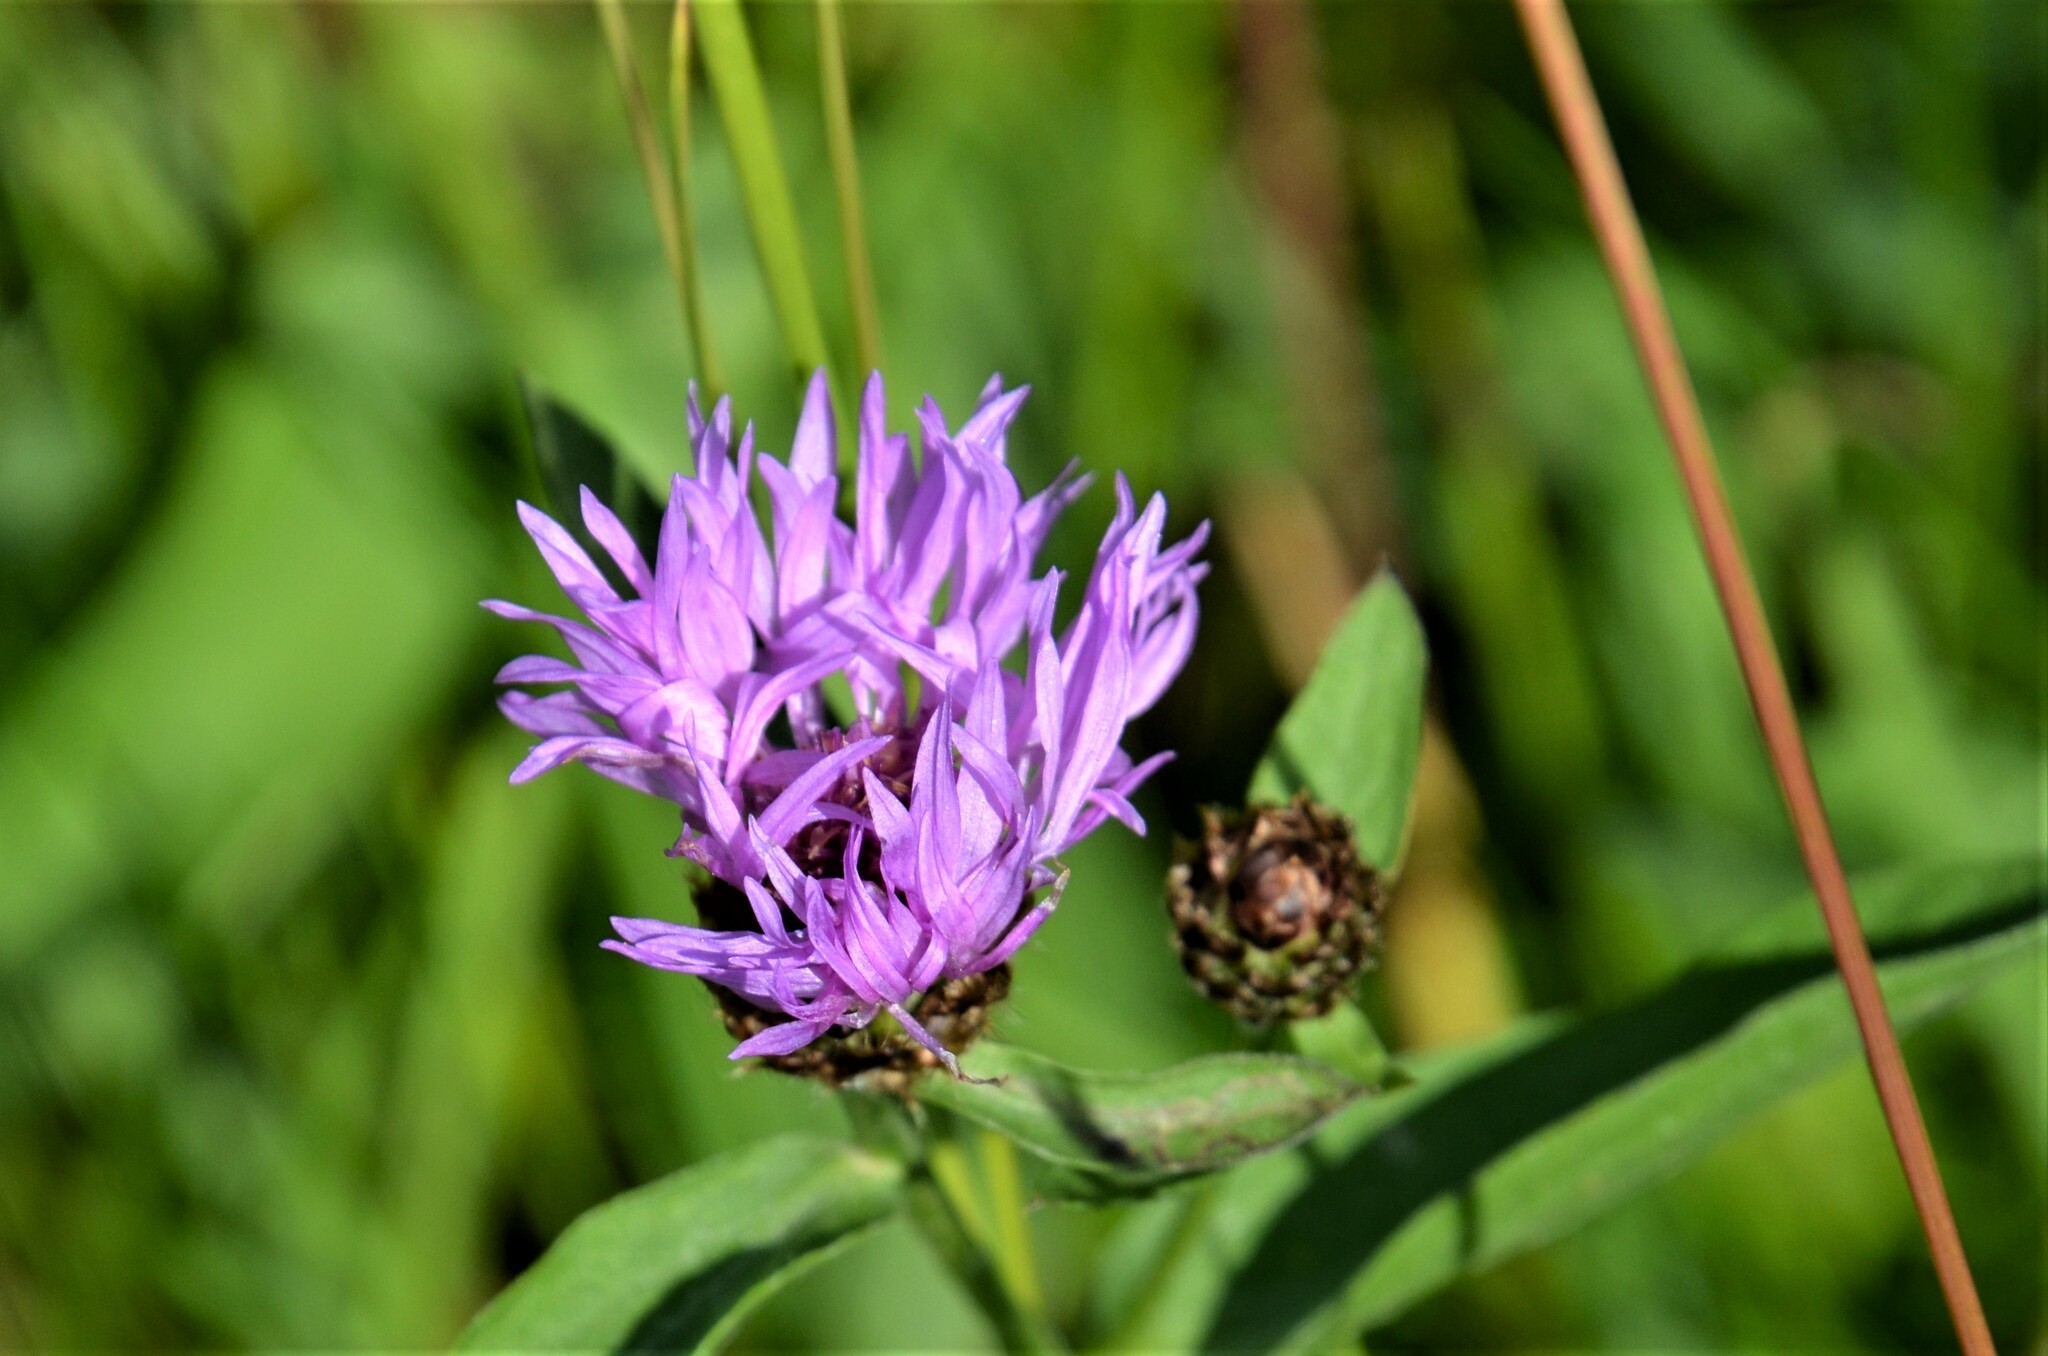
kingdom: Plantae
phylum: Tracheophyta
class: Magnoliopsida
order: Asterales
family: Asteraceae
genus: Centaurea
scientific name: Centaurea nigrescens
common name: Tyrol knapweed
